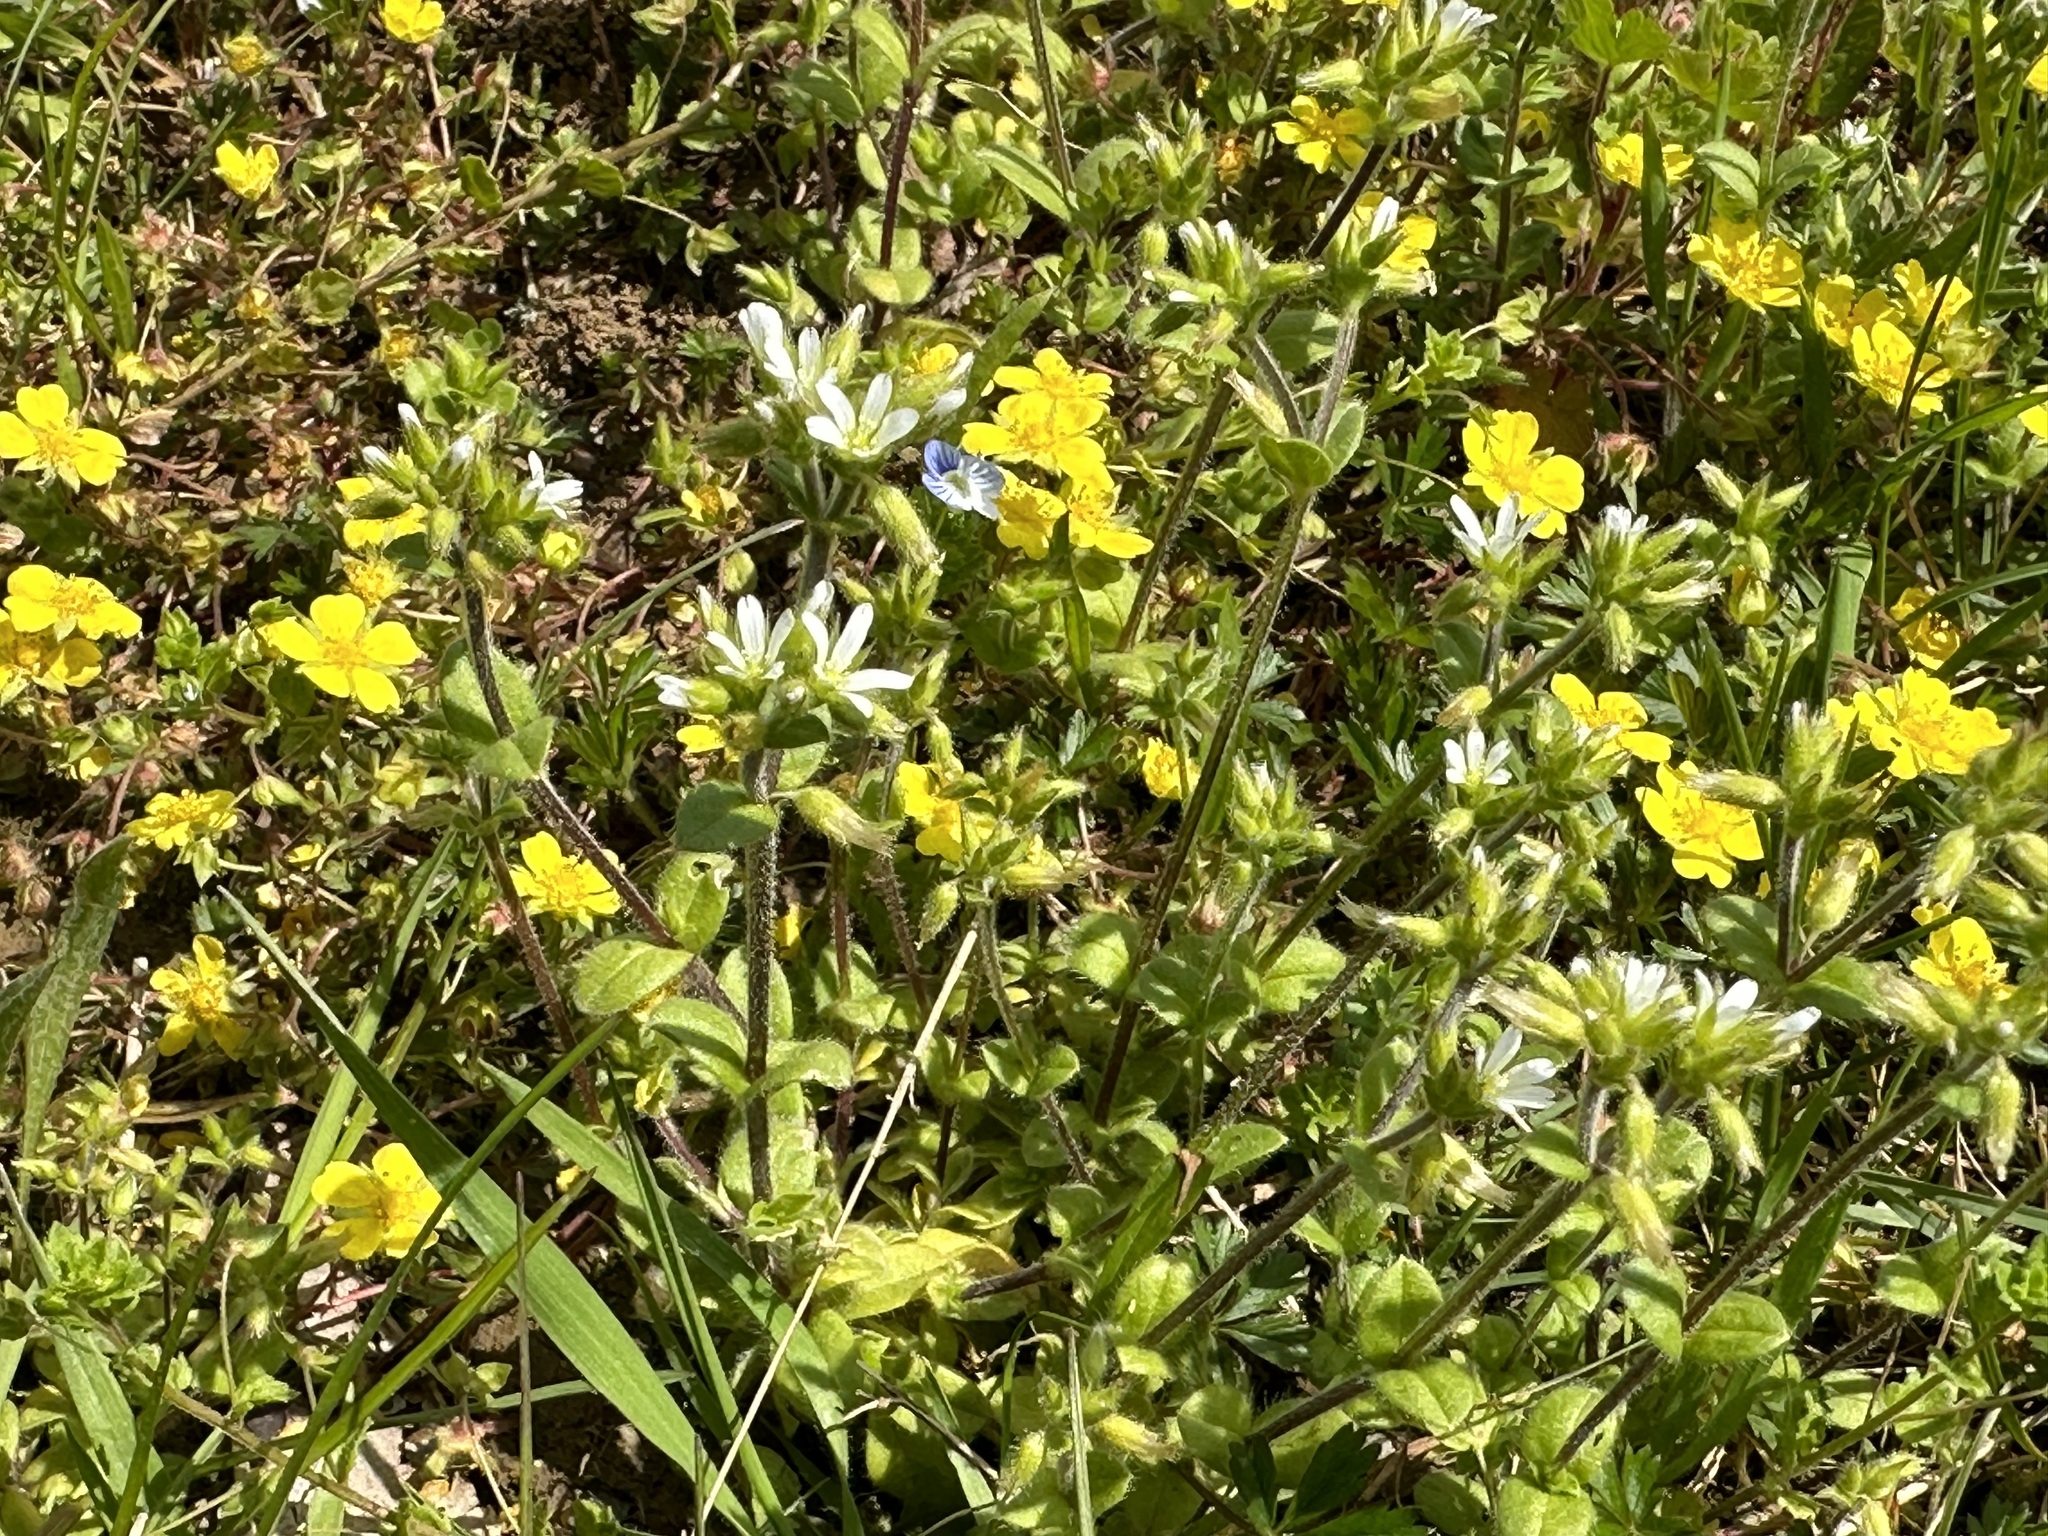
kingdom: Plantae
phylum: Tracheophyta
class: Magnoliopsida
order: Caryophyllales
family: Caryophyllaceae
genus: Cerastium
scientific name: Cerastium glomeratum
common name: Sticky chickweed
